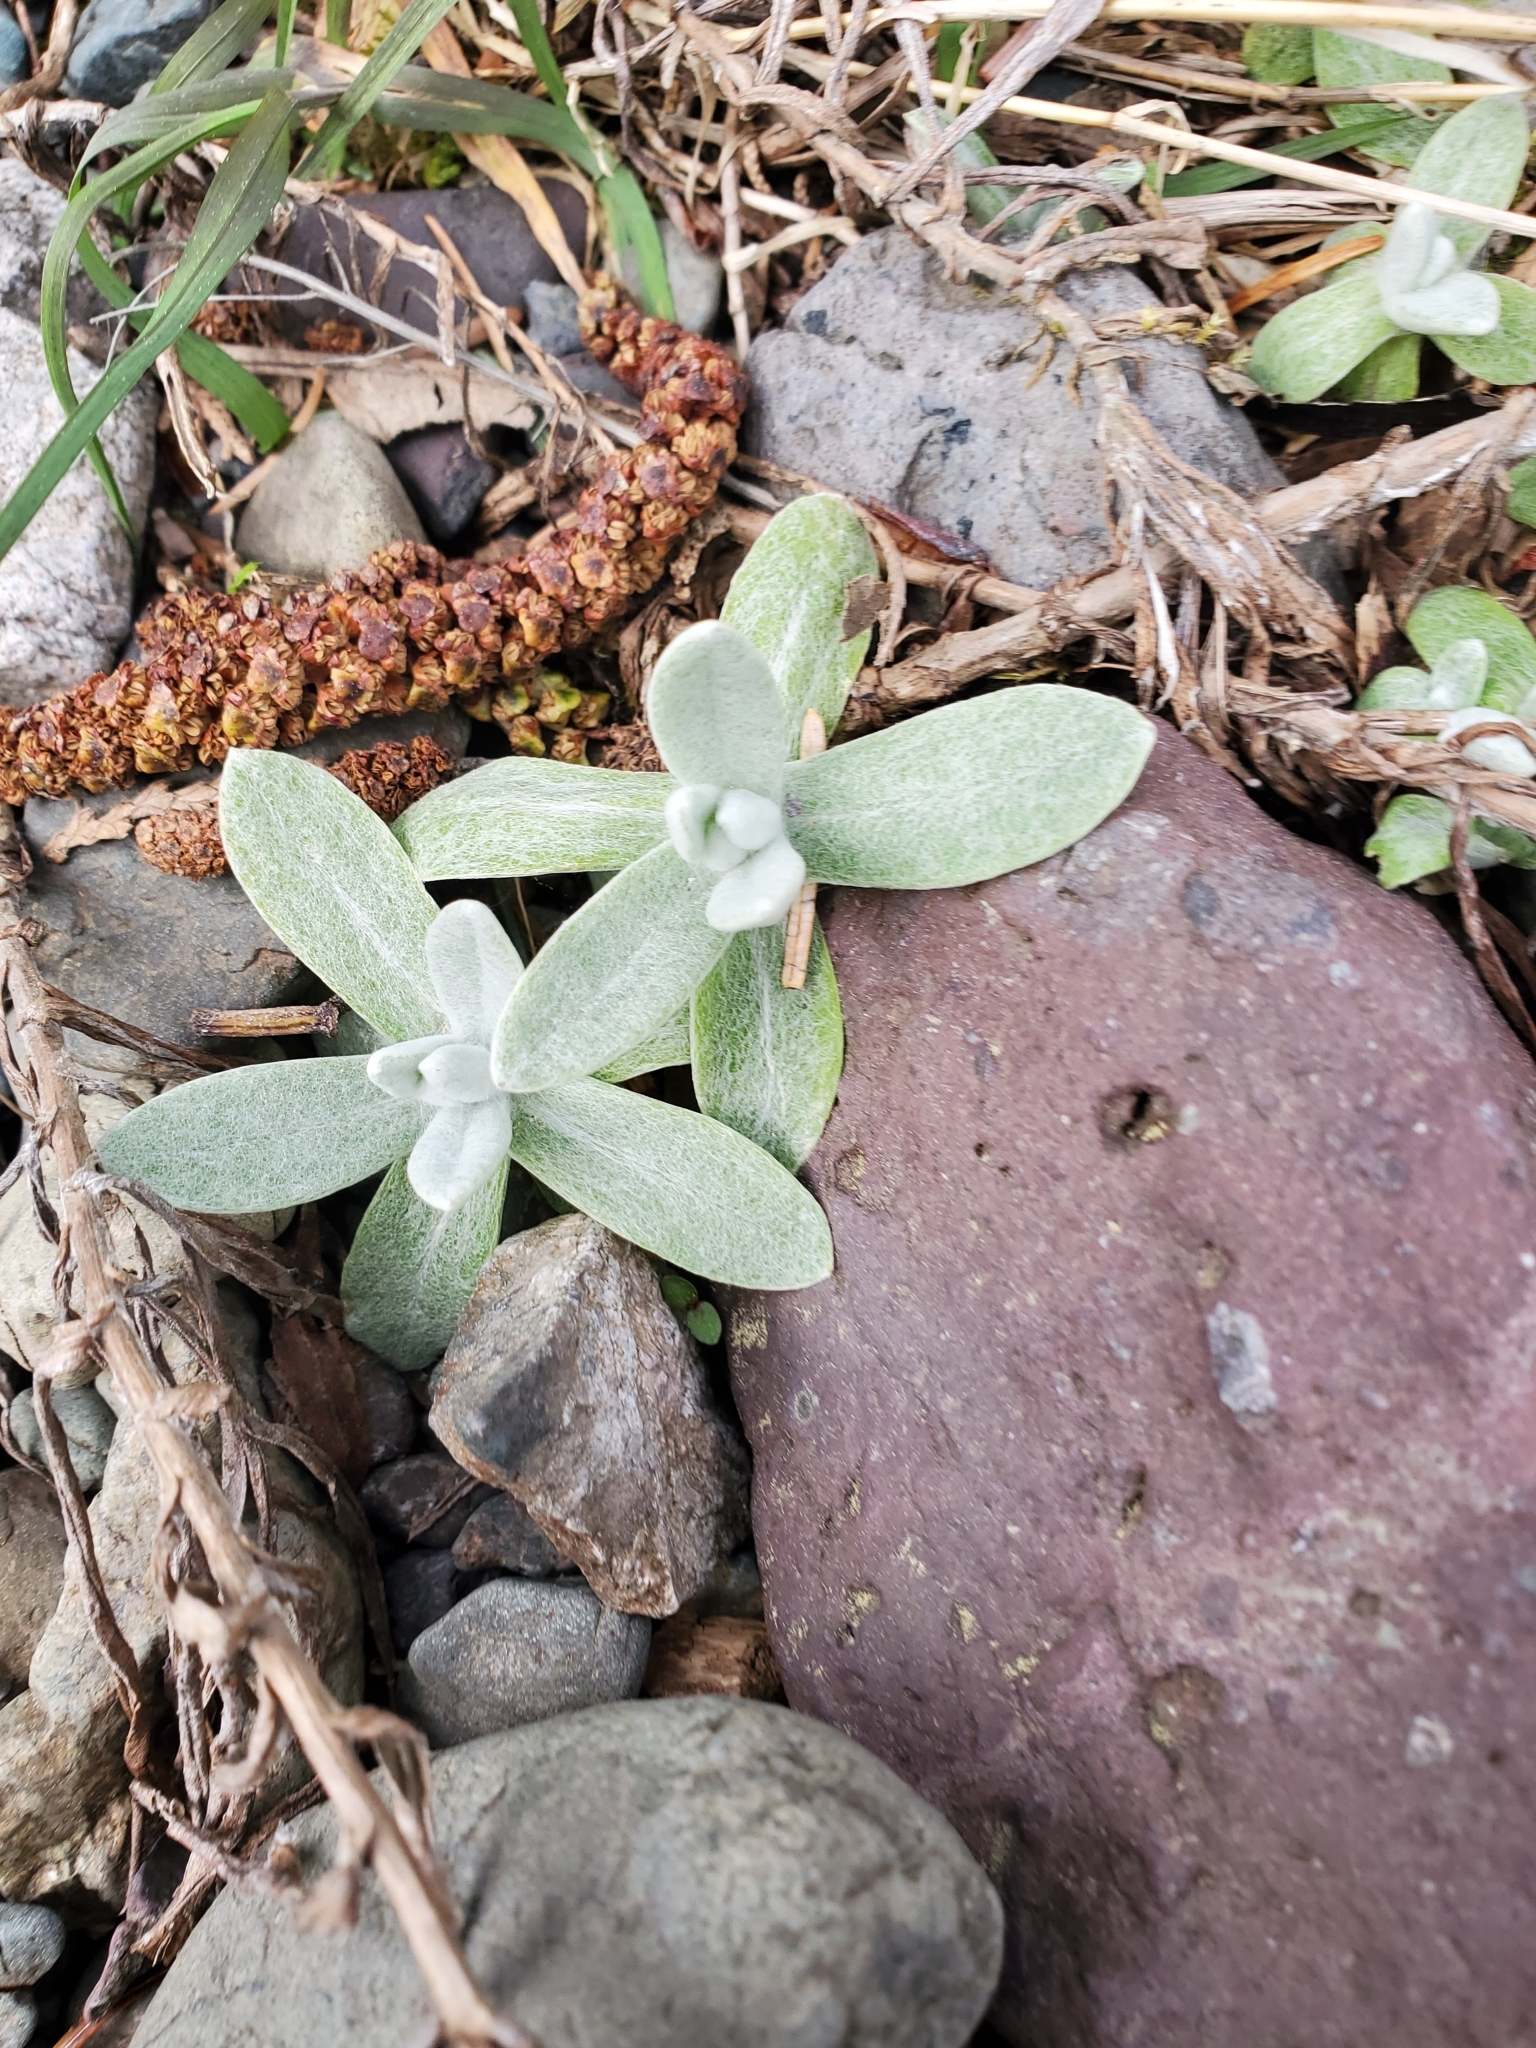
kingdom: Plantae
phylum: Tracheophyta
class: Magnoliopsida
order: Asterales
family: Asteraceae
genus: Anaphalis
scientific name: Anaphalis margaritacea
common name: Pearly everlasting
